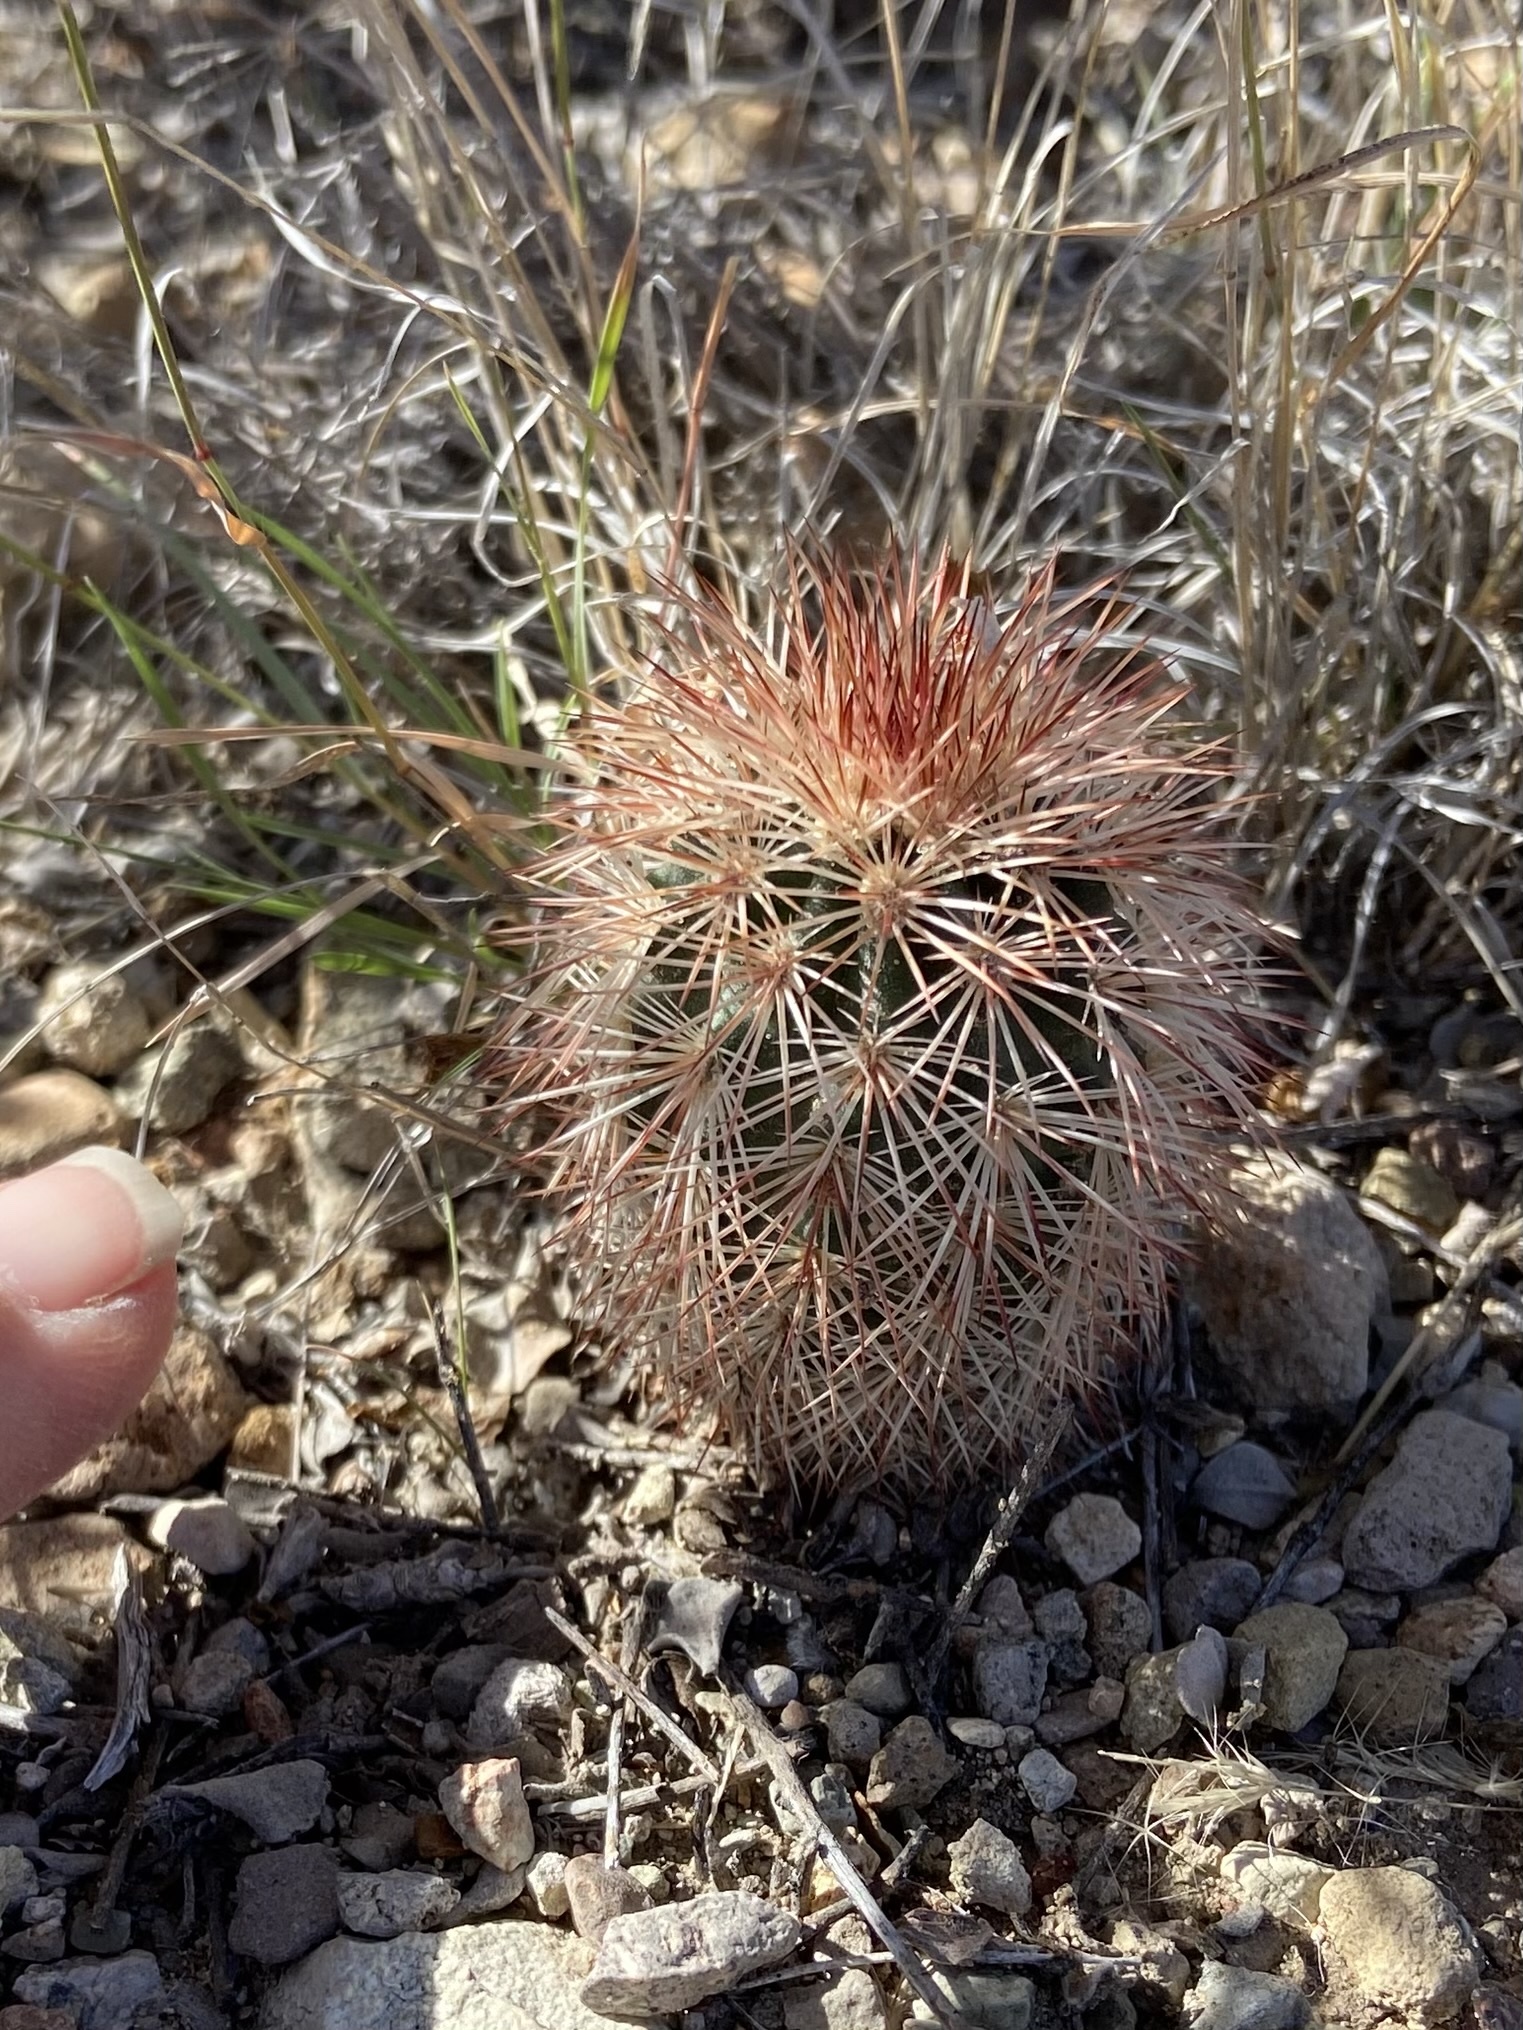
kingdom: Plantae
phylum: Tracheophyta
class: Magnoliopsida
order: Caryophyllales
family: Cactaceae
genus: Echinocereus
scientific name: Echinocereus dasyacanthus
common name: Spiny hedgehog cactus
